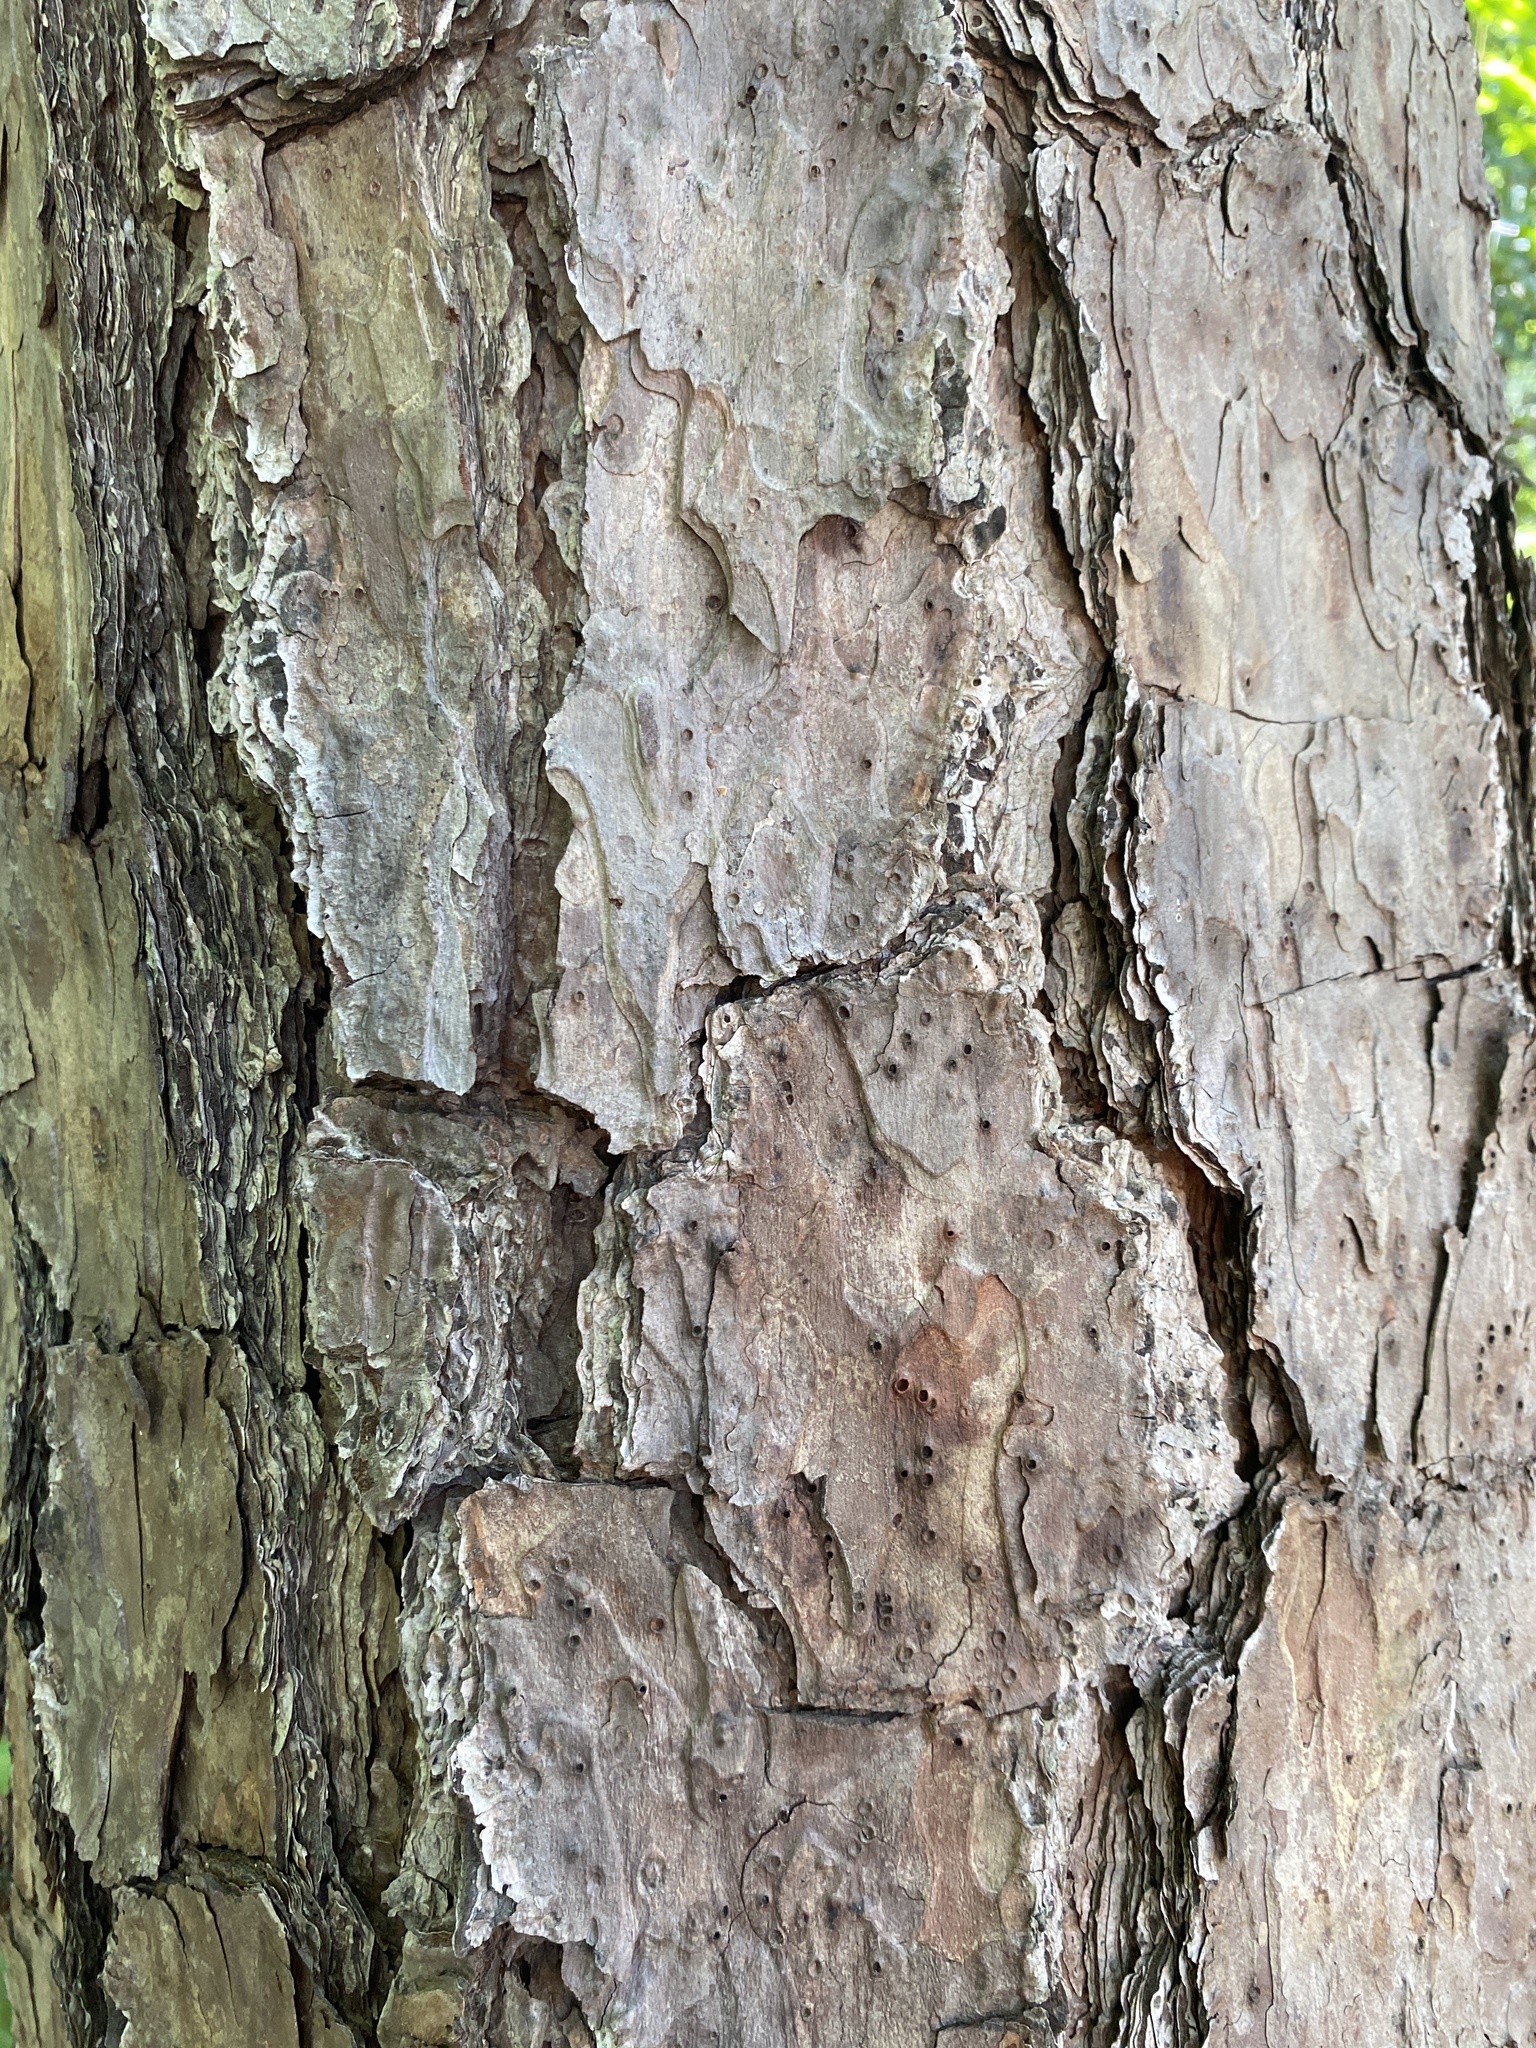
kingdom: Plantae
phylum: Tracheophyta
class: Pinopsida
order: Pinales
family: Pinaceae
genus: Pinus
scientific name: Pinus echinata
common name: Shortleaf pine
